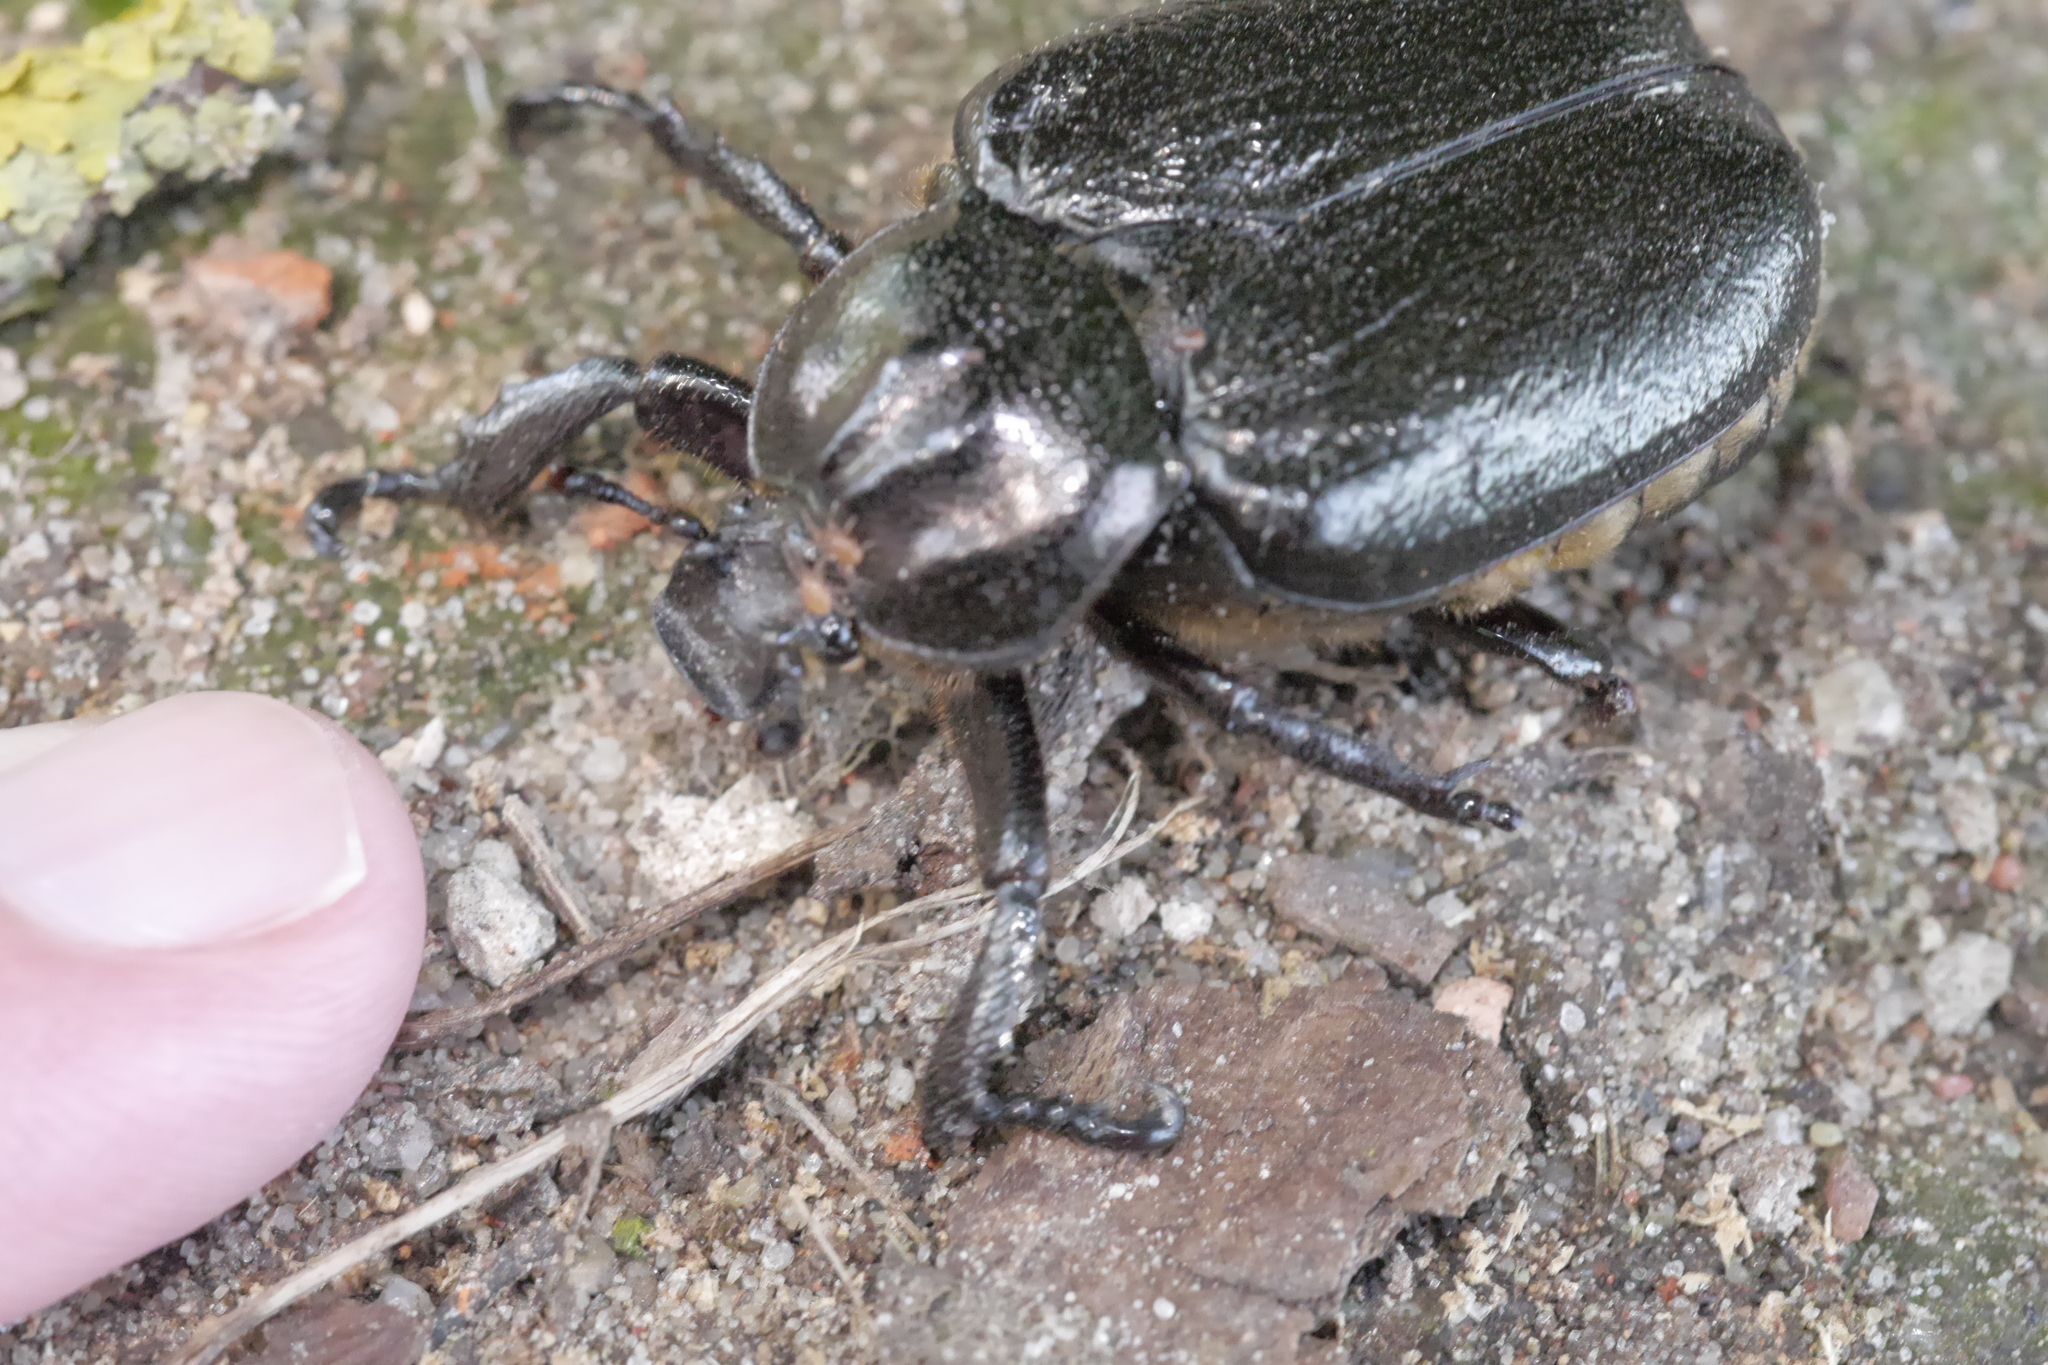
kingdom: Animalia
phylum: Arthropoda
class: Insecta
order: Coleoptera
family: Scarabaeidae
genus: Osmoderma
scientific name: Osmoderma barnabita
